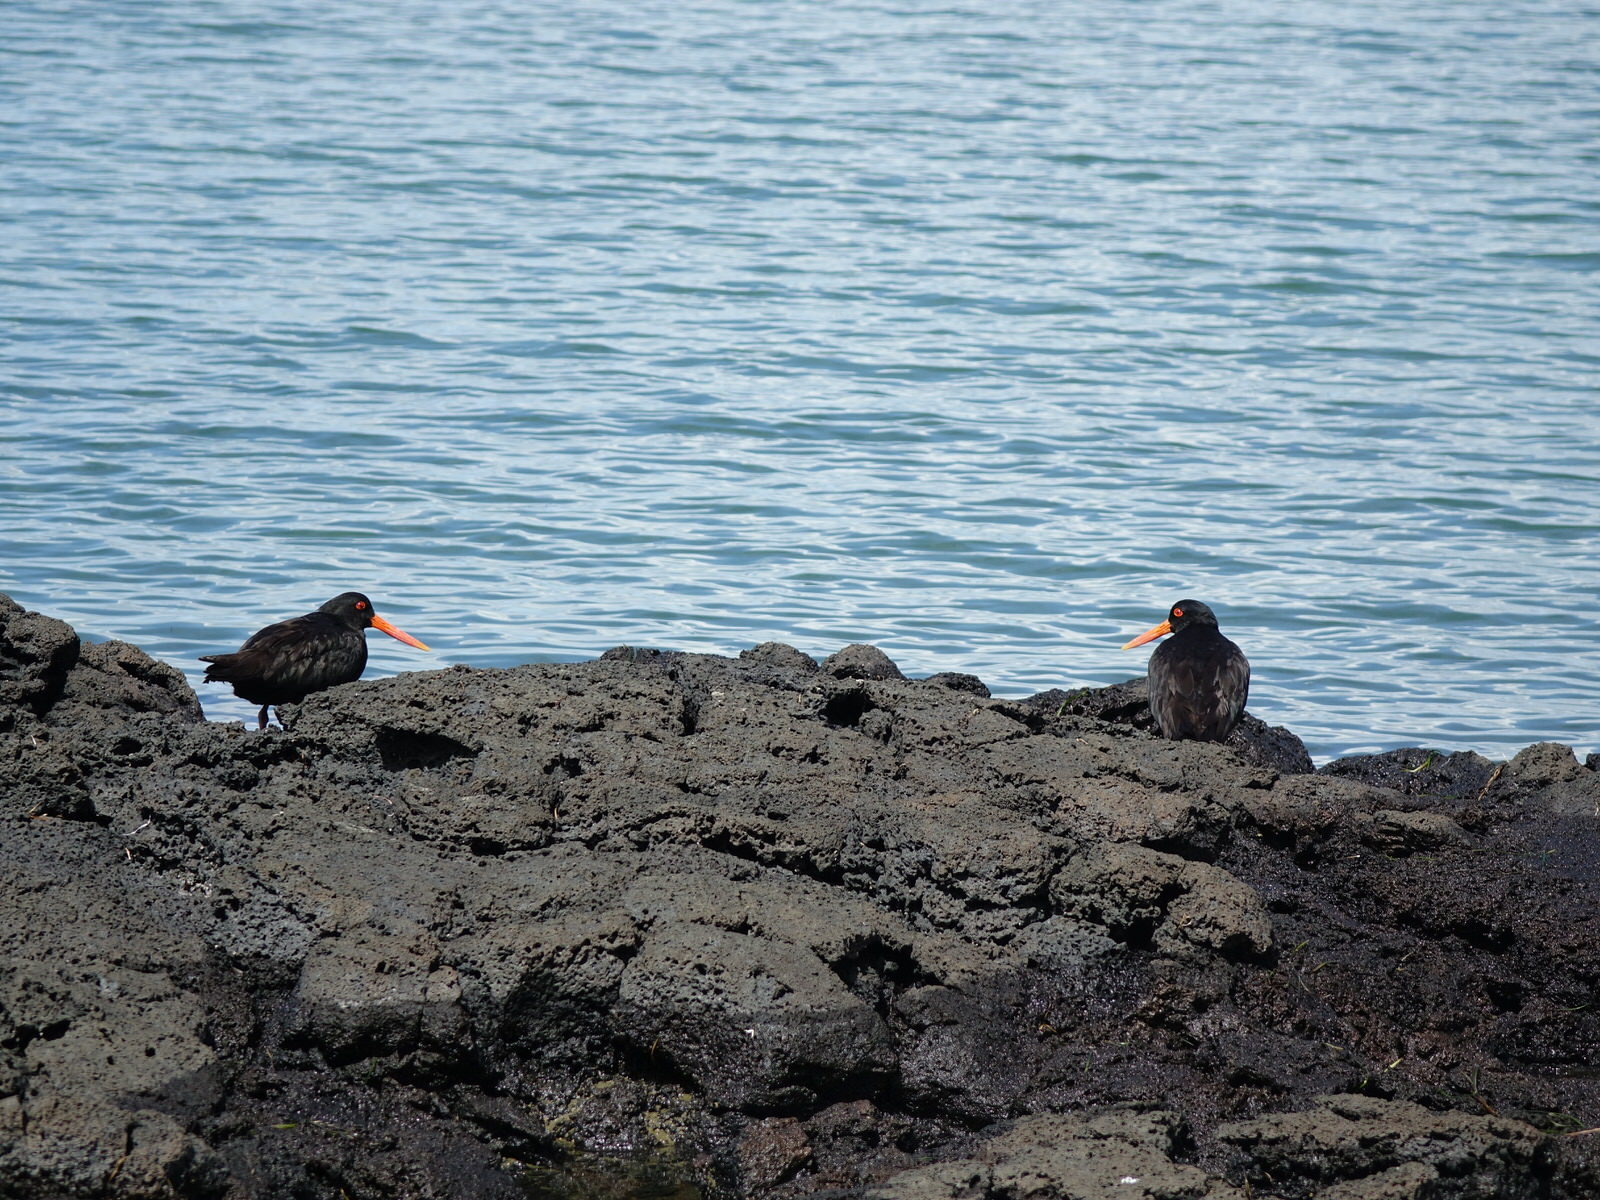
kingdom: Animalia
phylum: Chordata
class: Aves
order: Charadriiformes
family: Haematopodidae
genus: Haematopus
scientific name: Haematopus unicolor
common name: Variable oystercatcher
